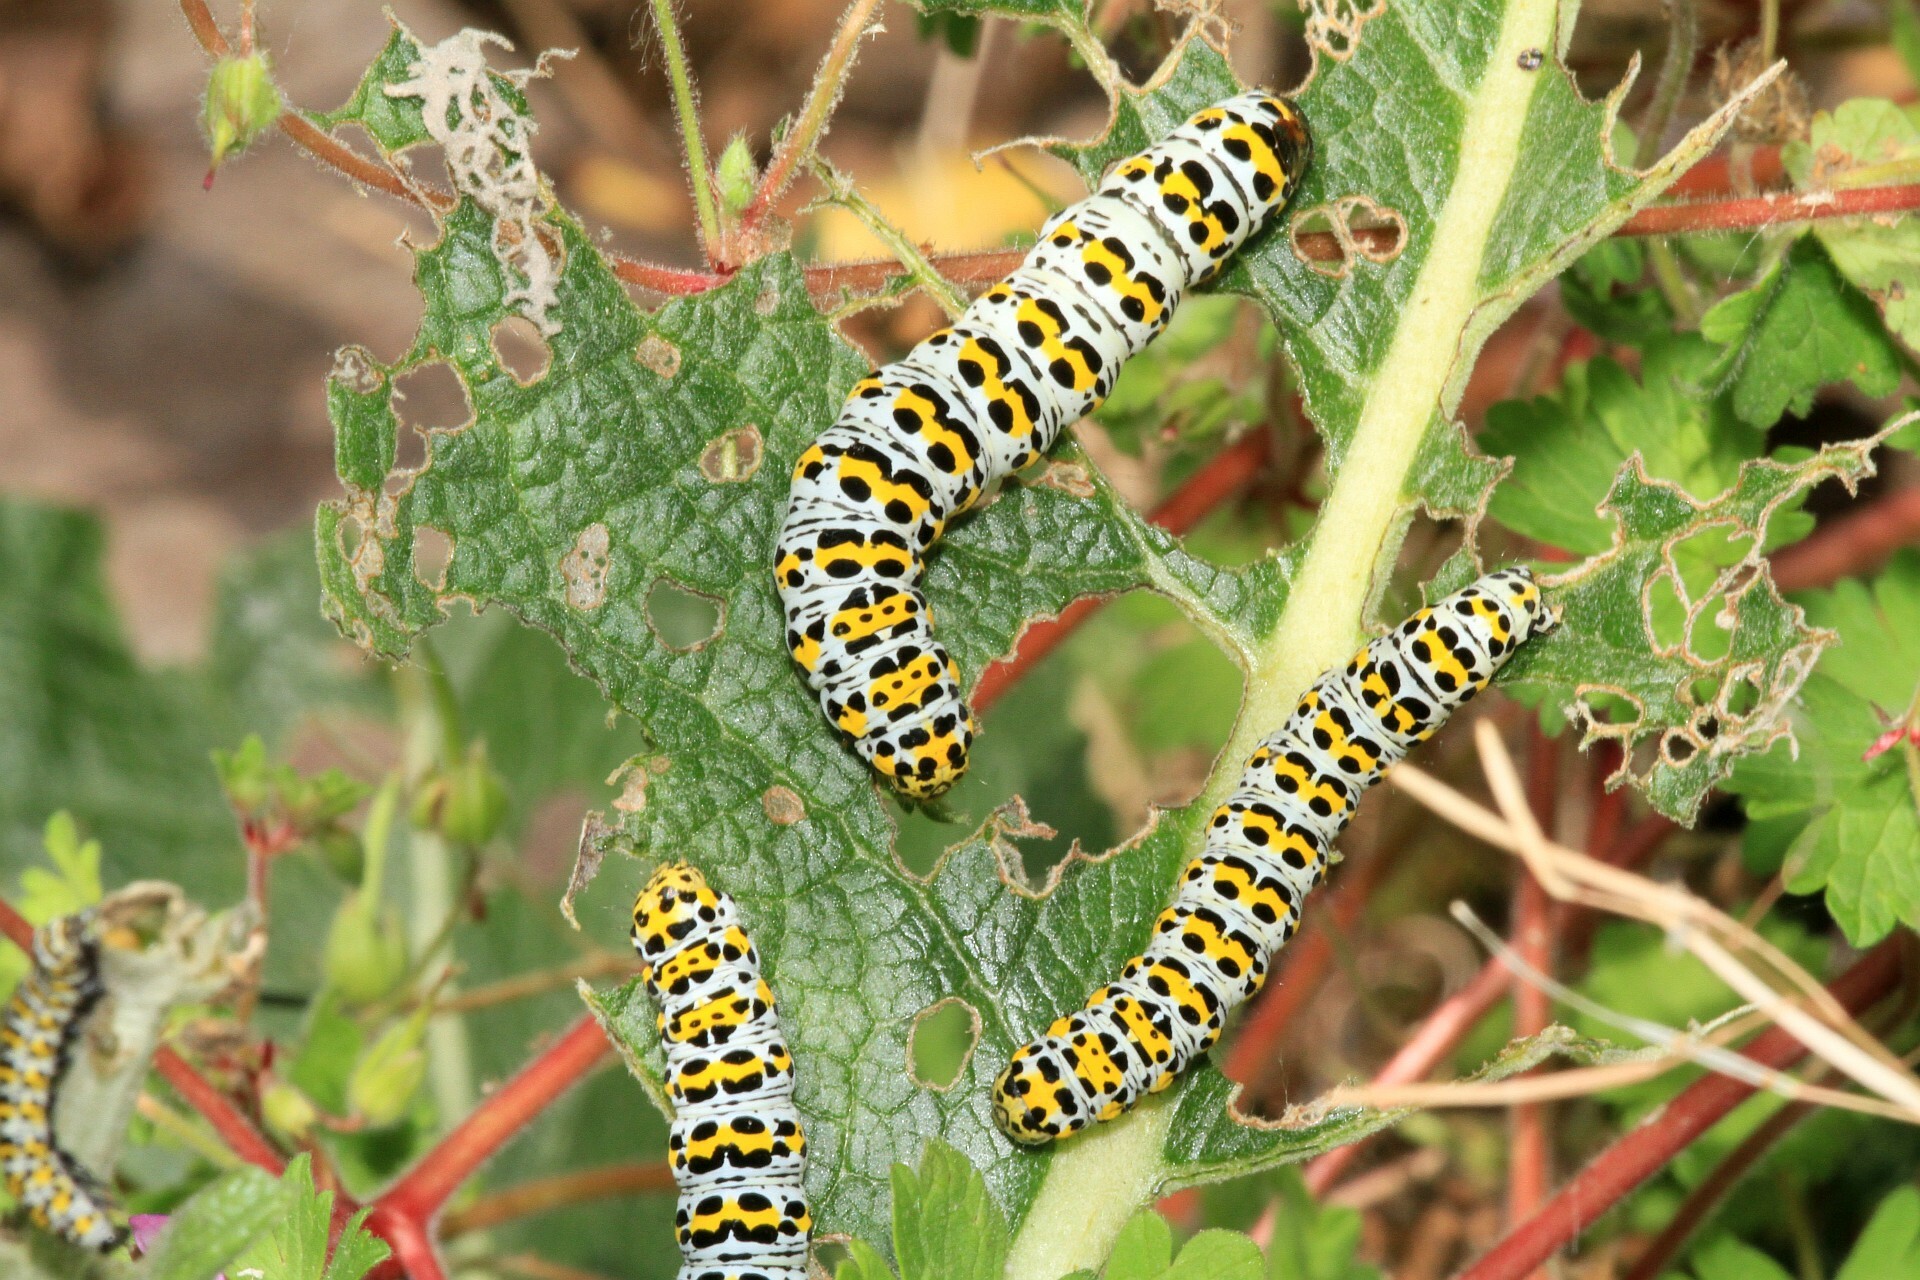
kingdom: Animalia
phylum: Arthropoda
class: Insecta
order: Lepidoptera
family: Noctuidae
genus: Cucullia
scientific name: Cucullia verbasci
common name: Mullein
